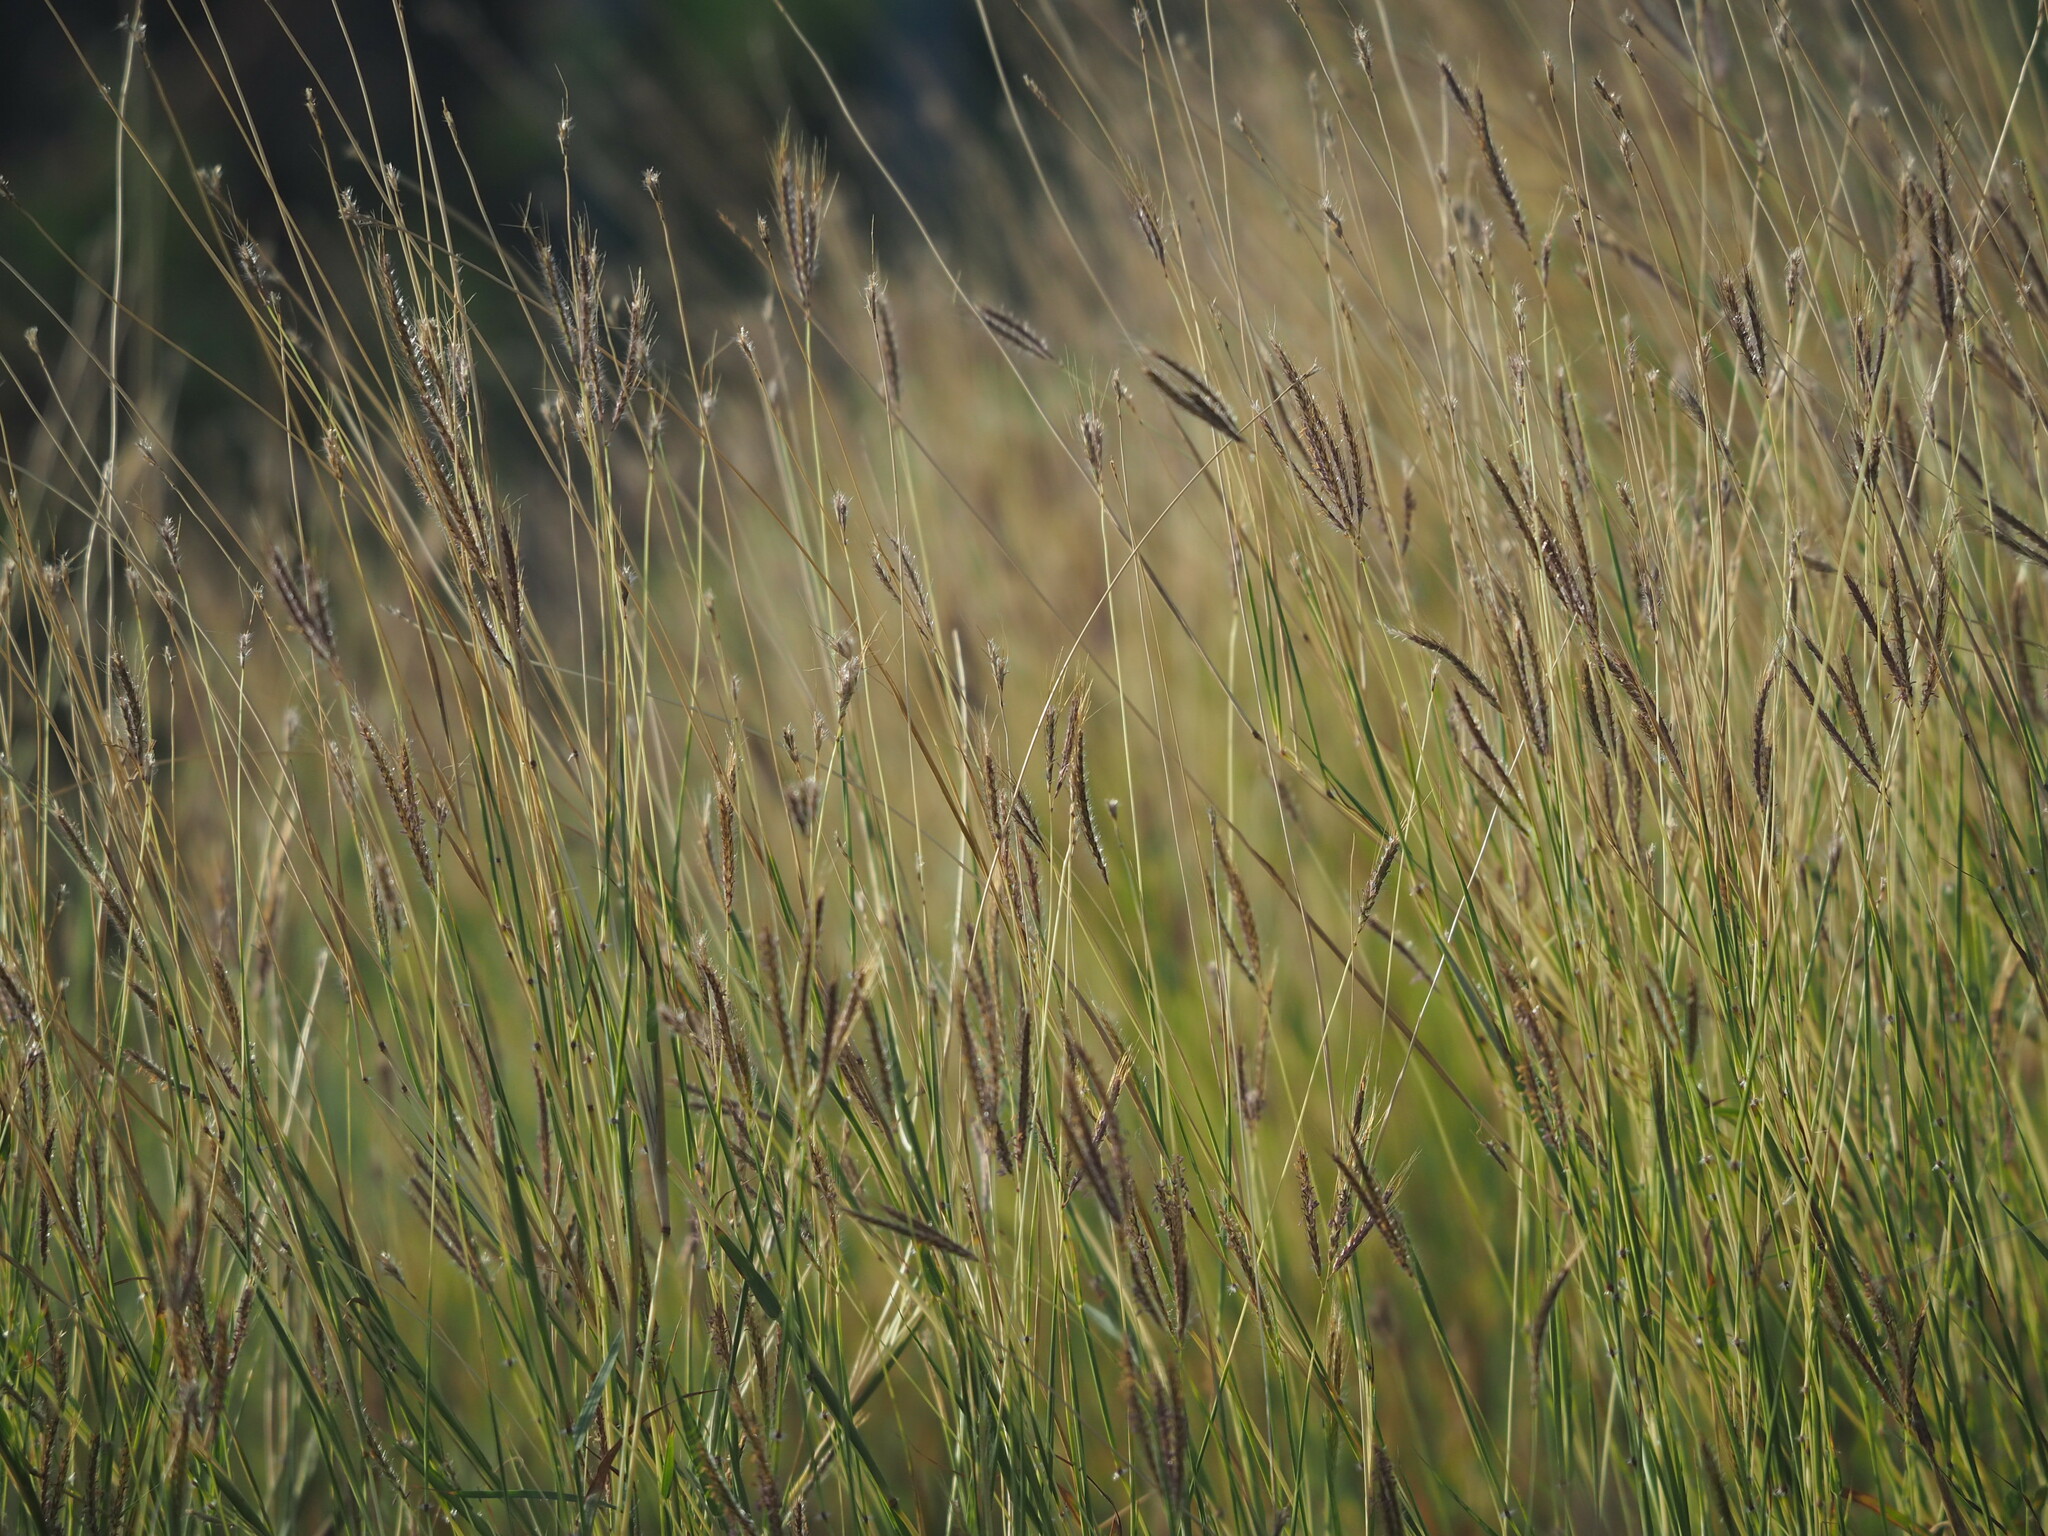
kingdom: Plantae
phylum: Tracheophyta
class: Liliopsida
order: Poales
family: Poaceae
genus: Dichanthium
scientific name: Dichanthium annulatum
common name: Kleberg's bluestem
